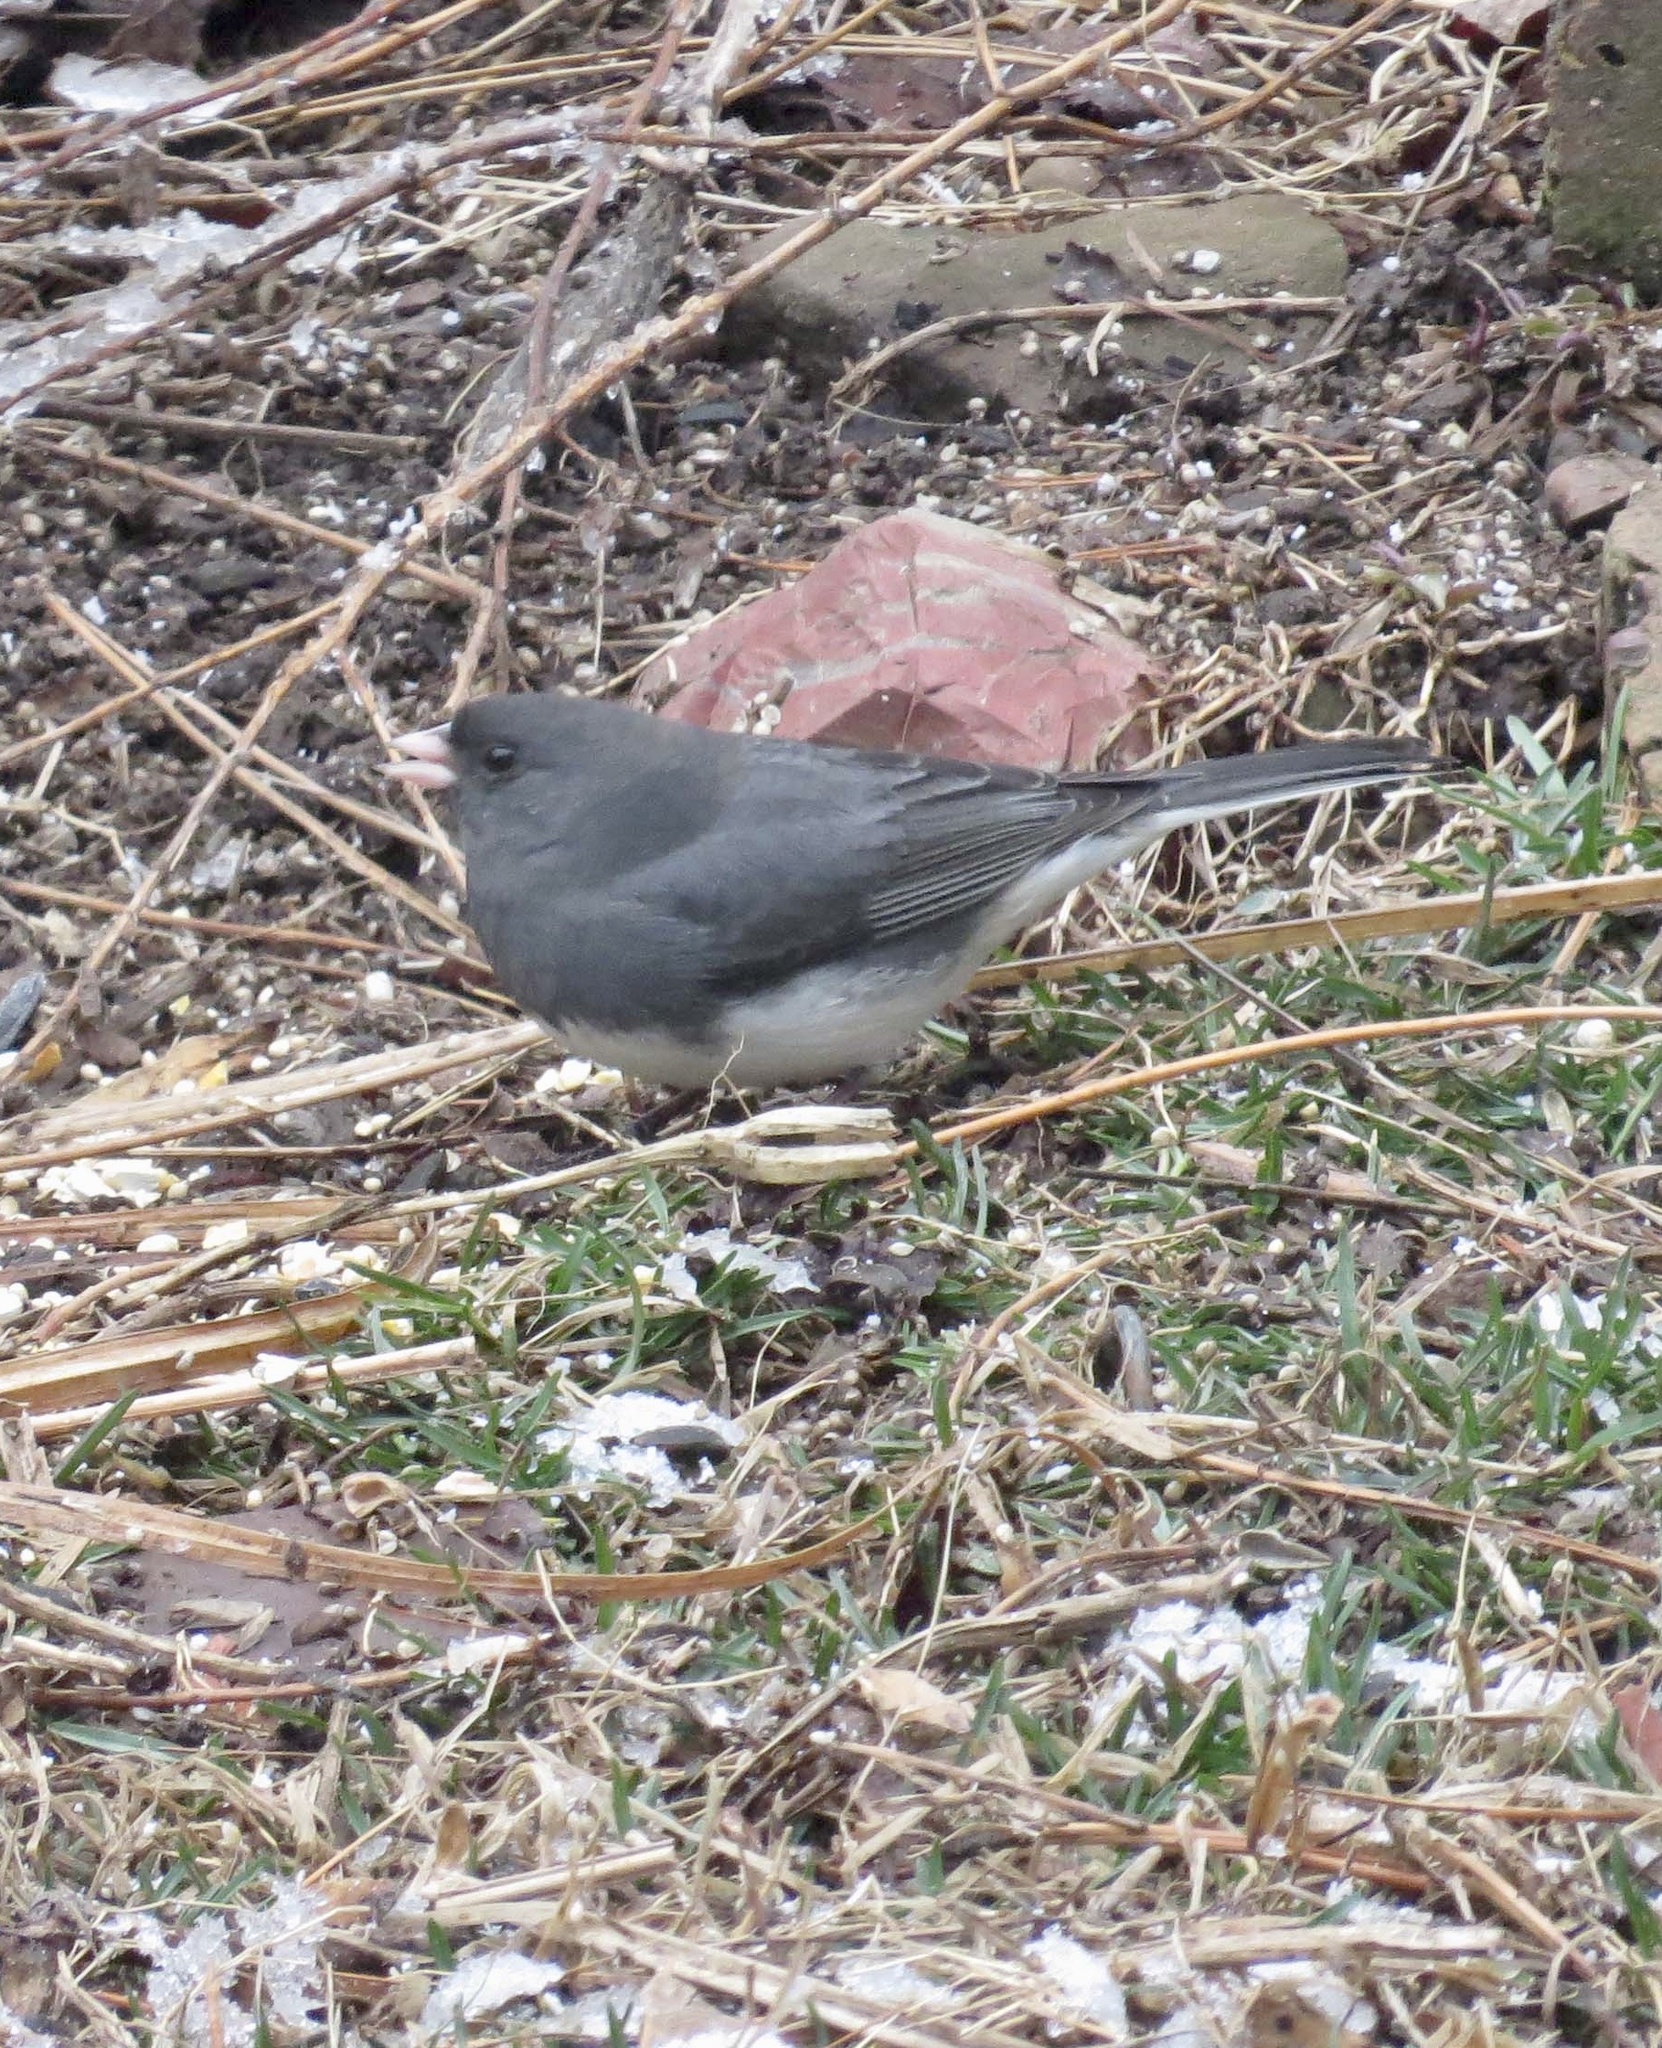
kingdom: Animalia
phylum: Chordata
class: Aves
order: Passeriformes
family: Passerellidae
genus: Junco
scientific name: Junco hyemalis
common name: Dark-eyed junco
